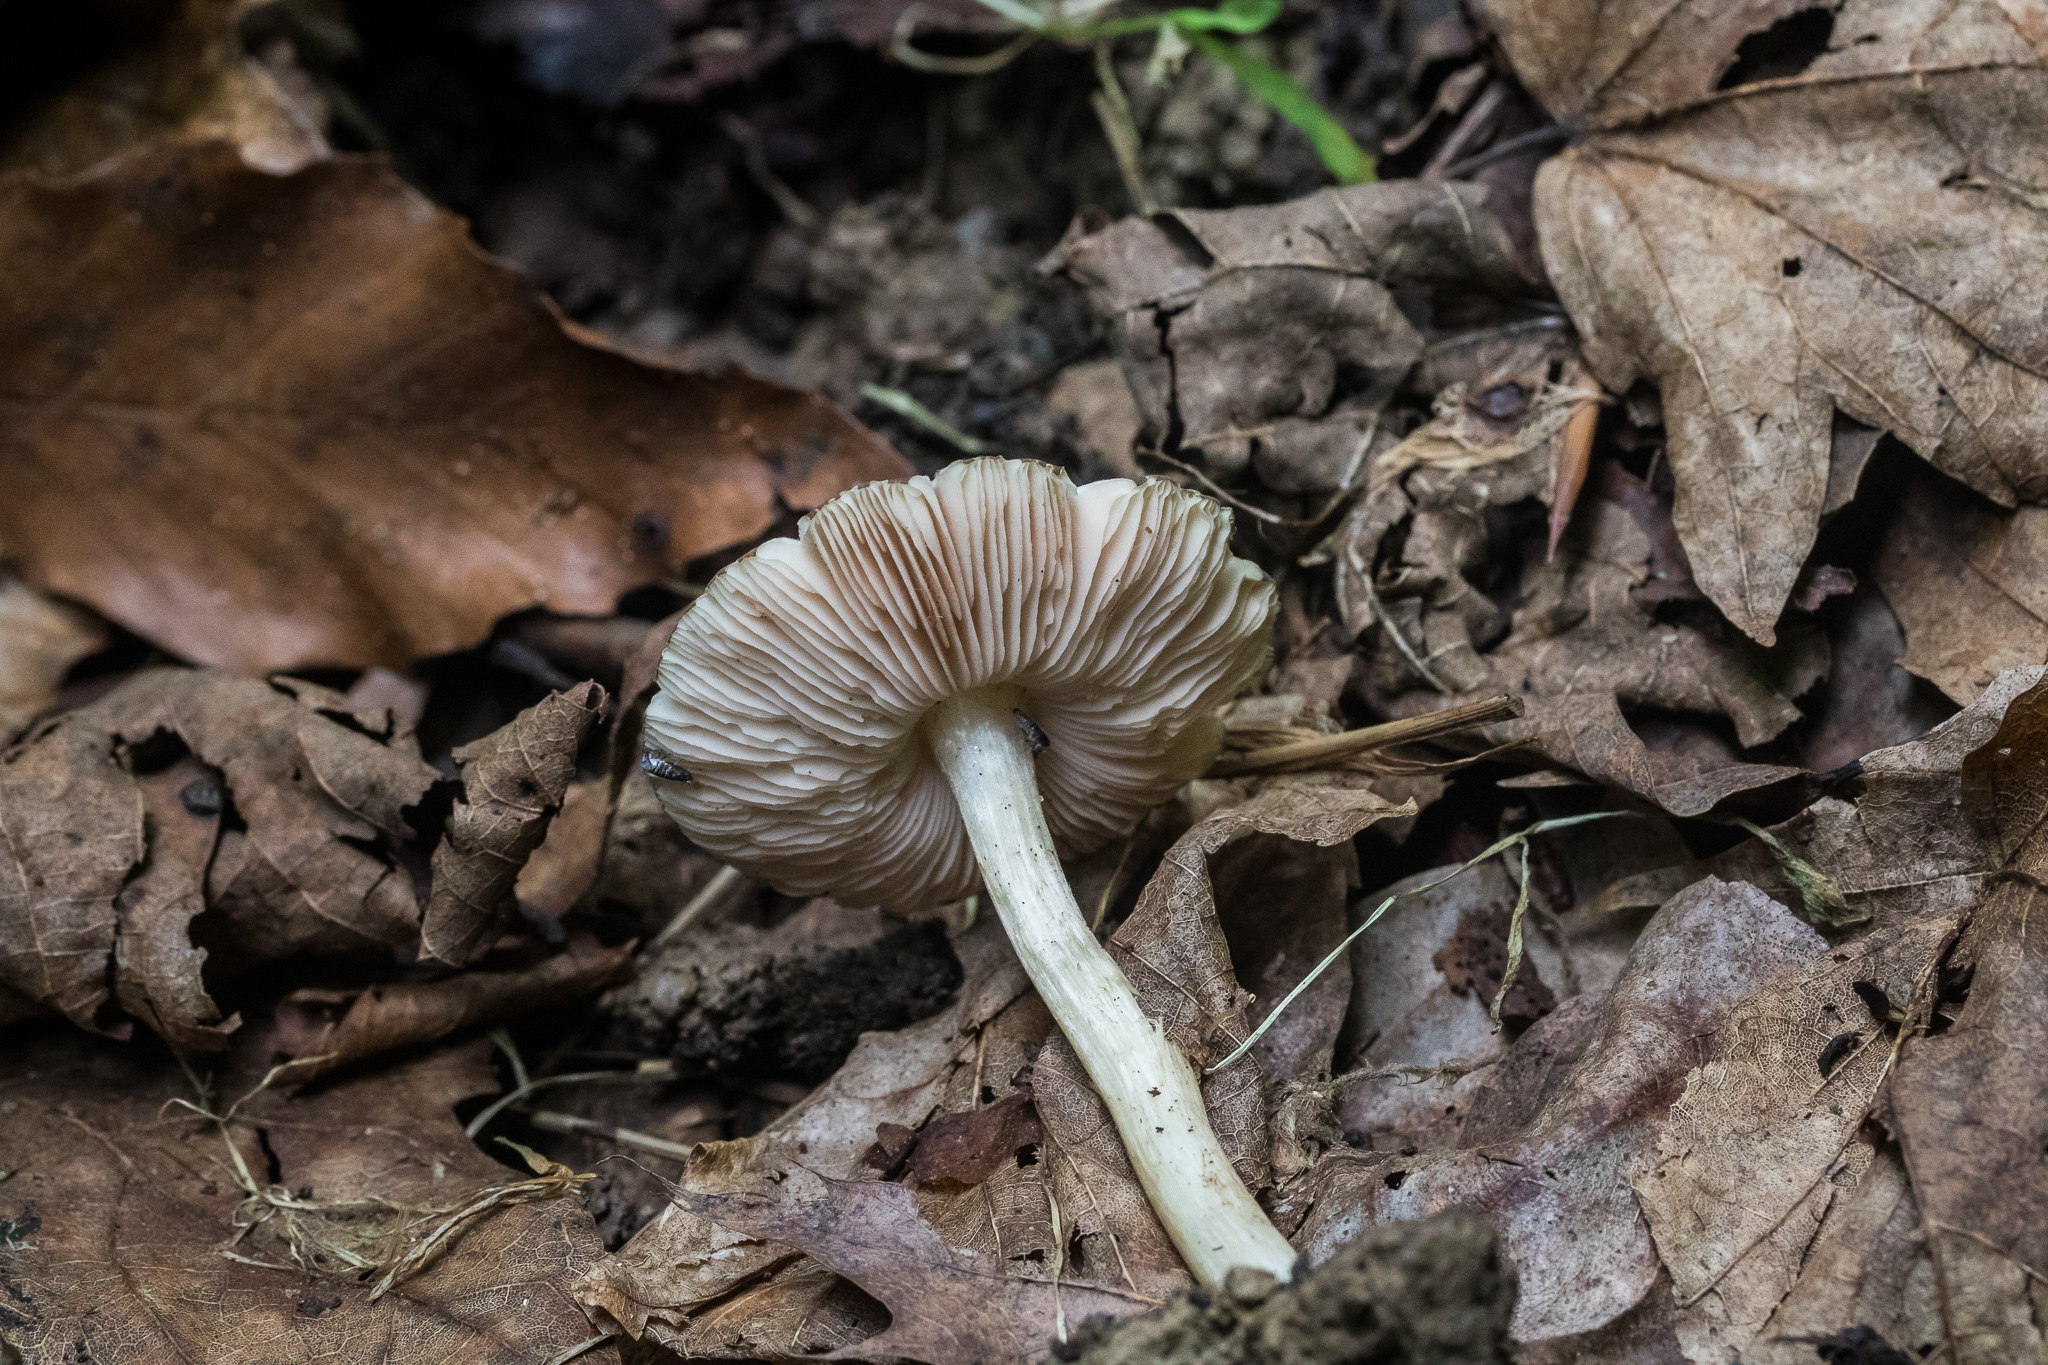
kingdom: Fungi
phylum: Basidiomycota
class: Agaricomycetes
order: Agaricales
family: Pluteaceae
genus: Pluteus
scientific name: Pluteus cervinus
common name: Deer shield
